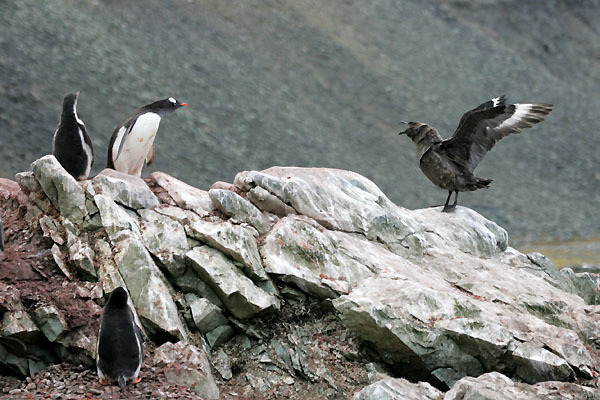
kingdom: Animalia
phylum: Chordata
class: Aves
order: Charadriiformes
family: Stercorariidae
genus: Stercorarius
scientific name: Stercorarius antarcticus
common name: Brown skua
